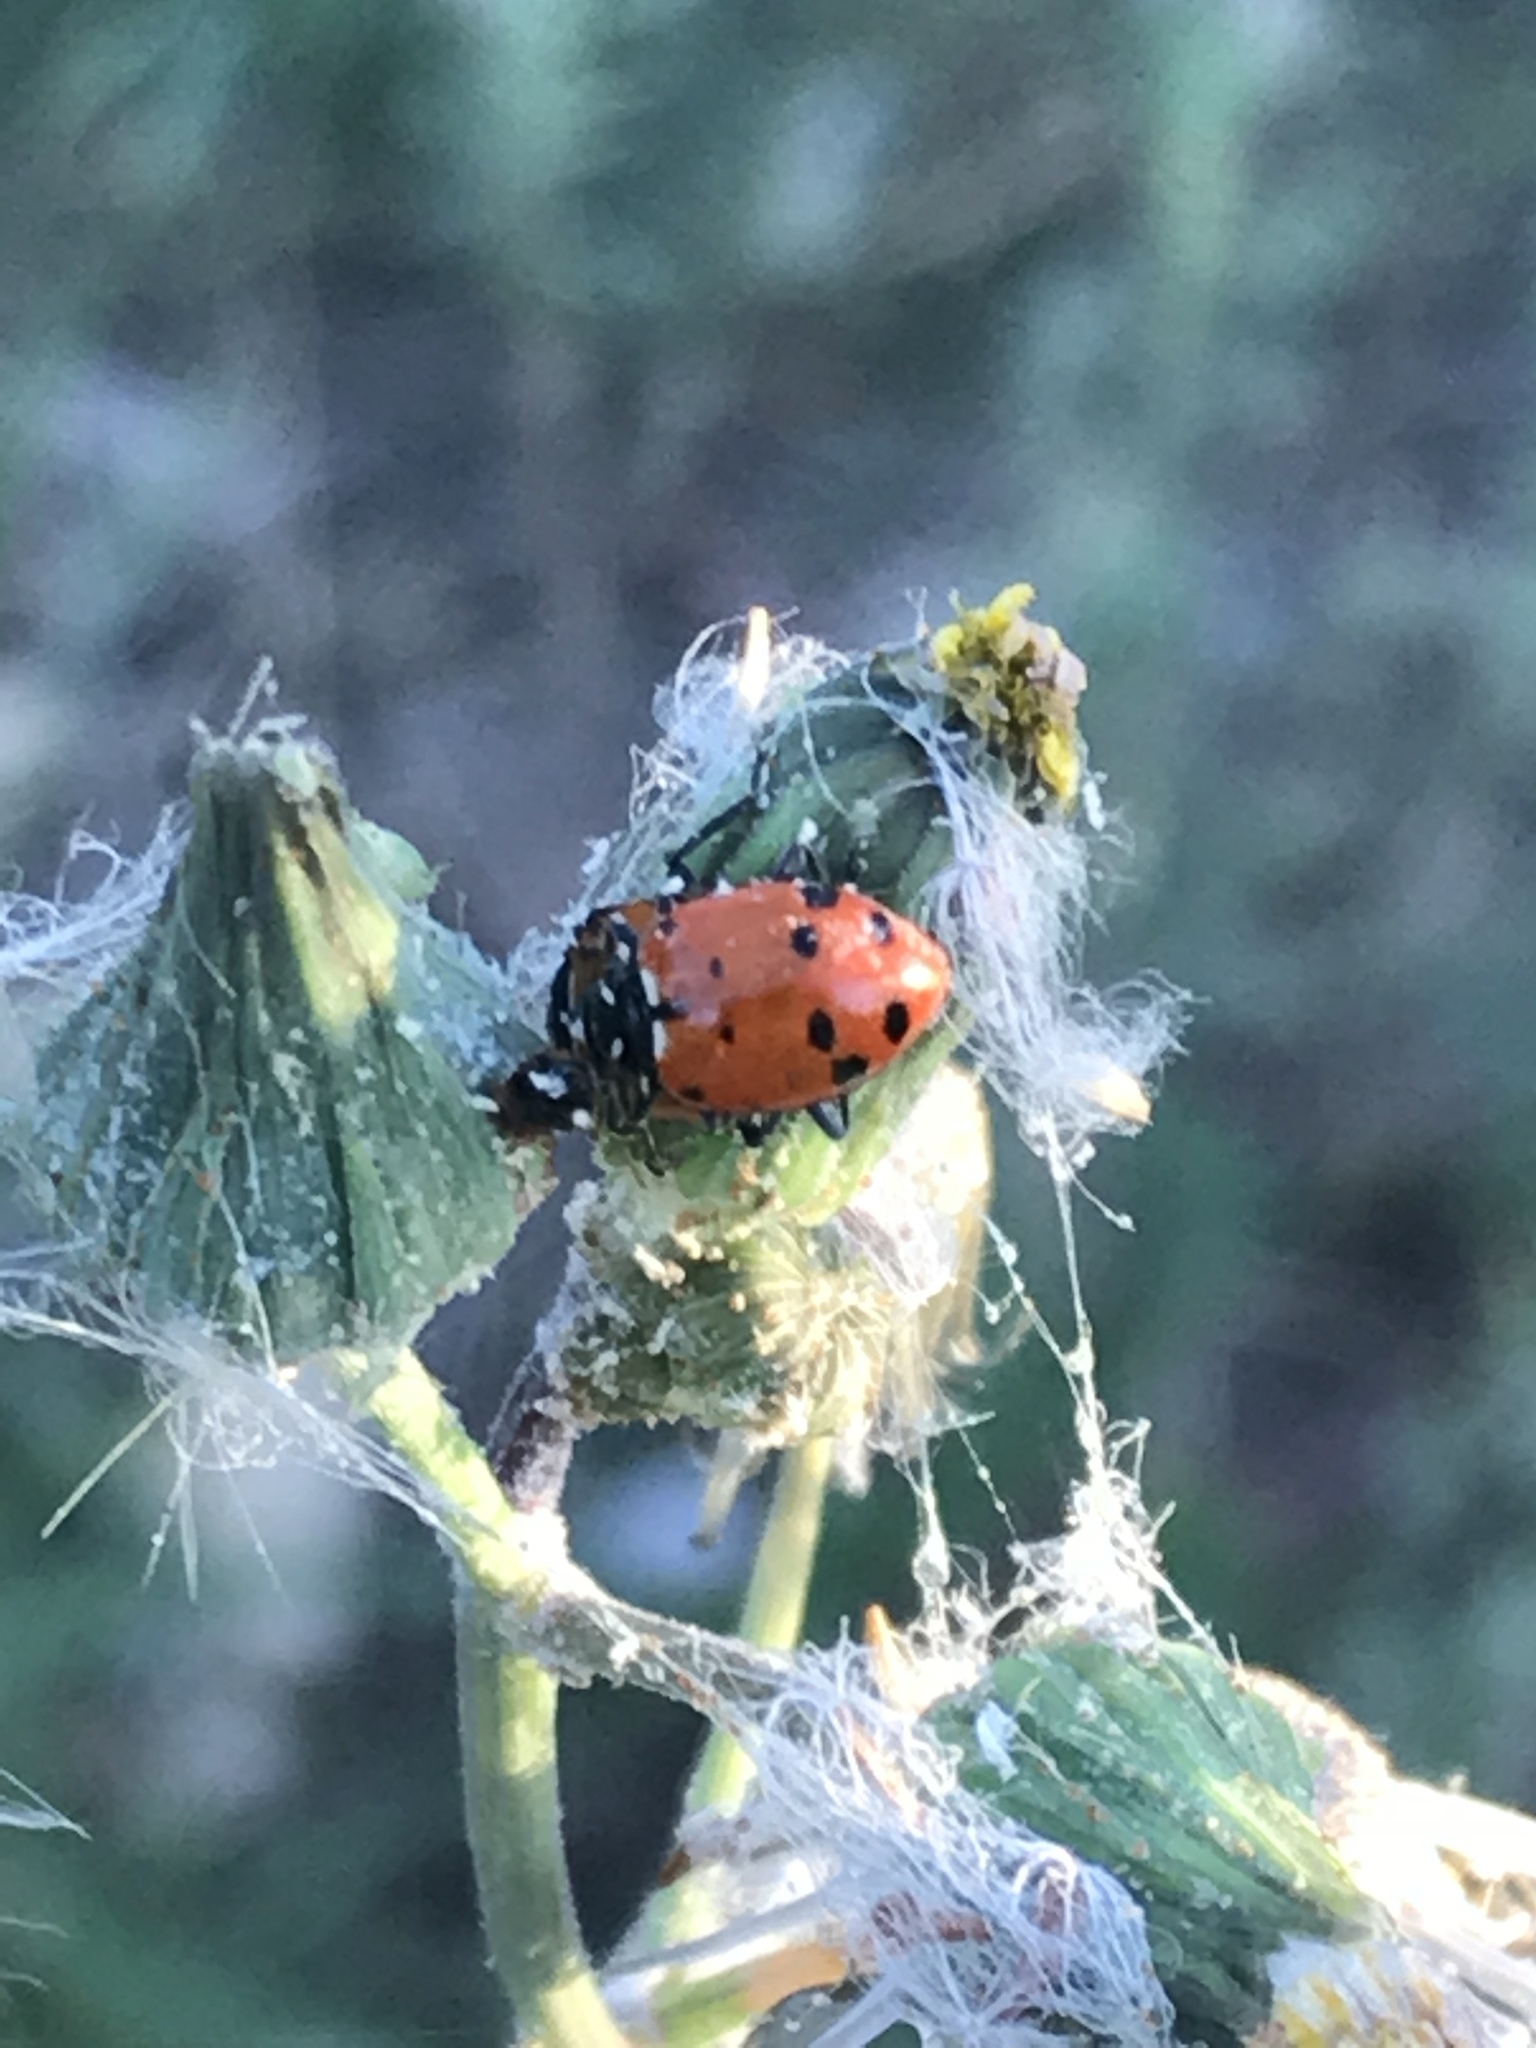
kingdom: Animalia
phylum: Arthropoda
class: Insecta
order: Coleoptera
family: Coccinellidae
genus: Hippodamia
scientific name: Hippodamia convergens
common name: Convergent lady beetle
